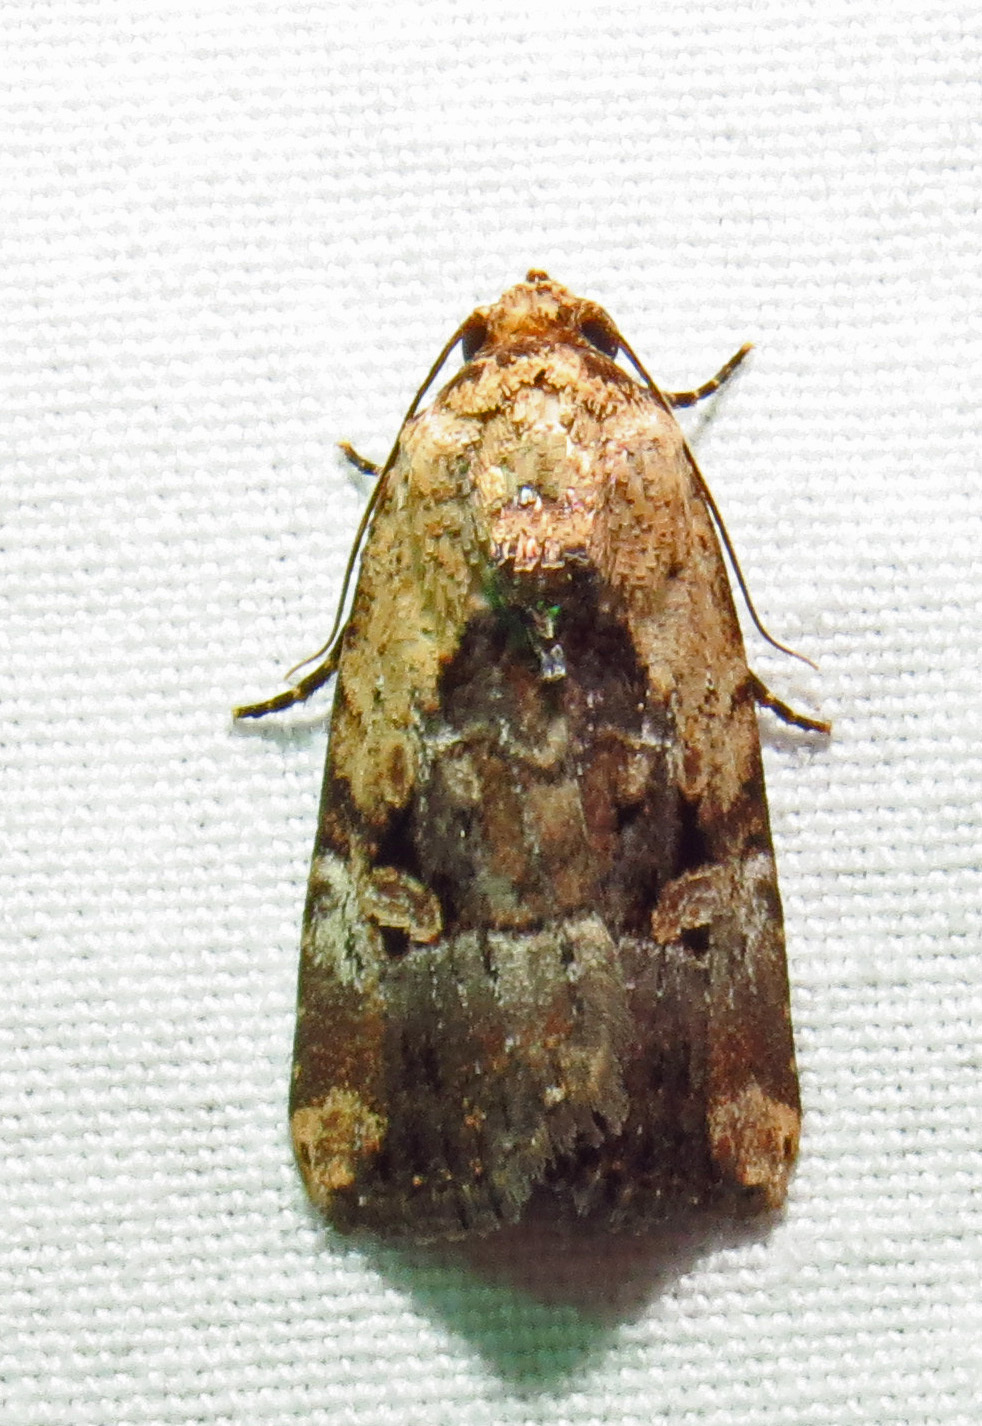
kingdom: Animalia
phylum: Arthropoda
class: Insecta
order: Lepidoptera
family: Noctuidae
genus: Elaphria
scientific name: Elaphria chalcedonia
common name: Chalcedony midget
